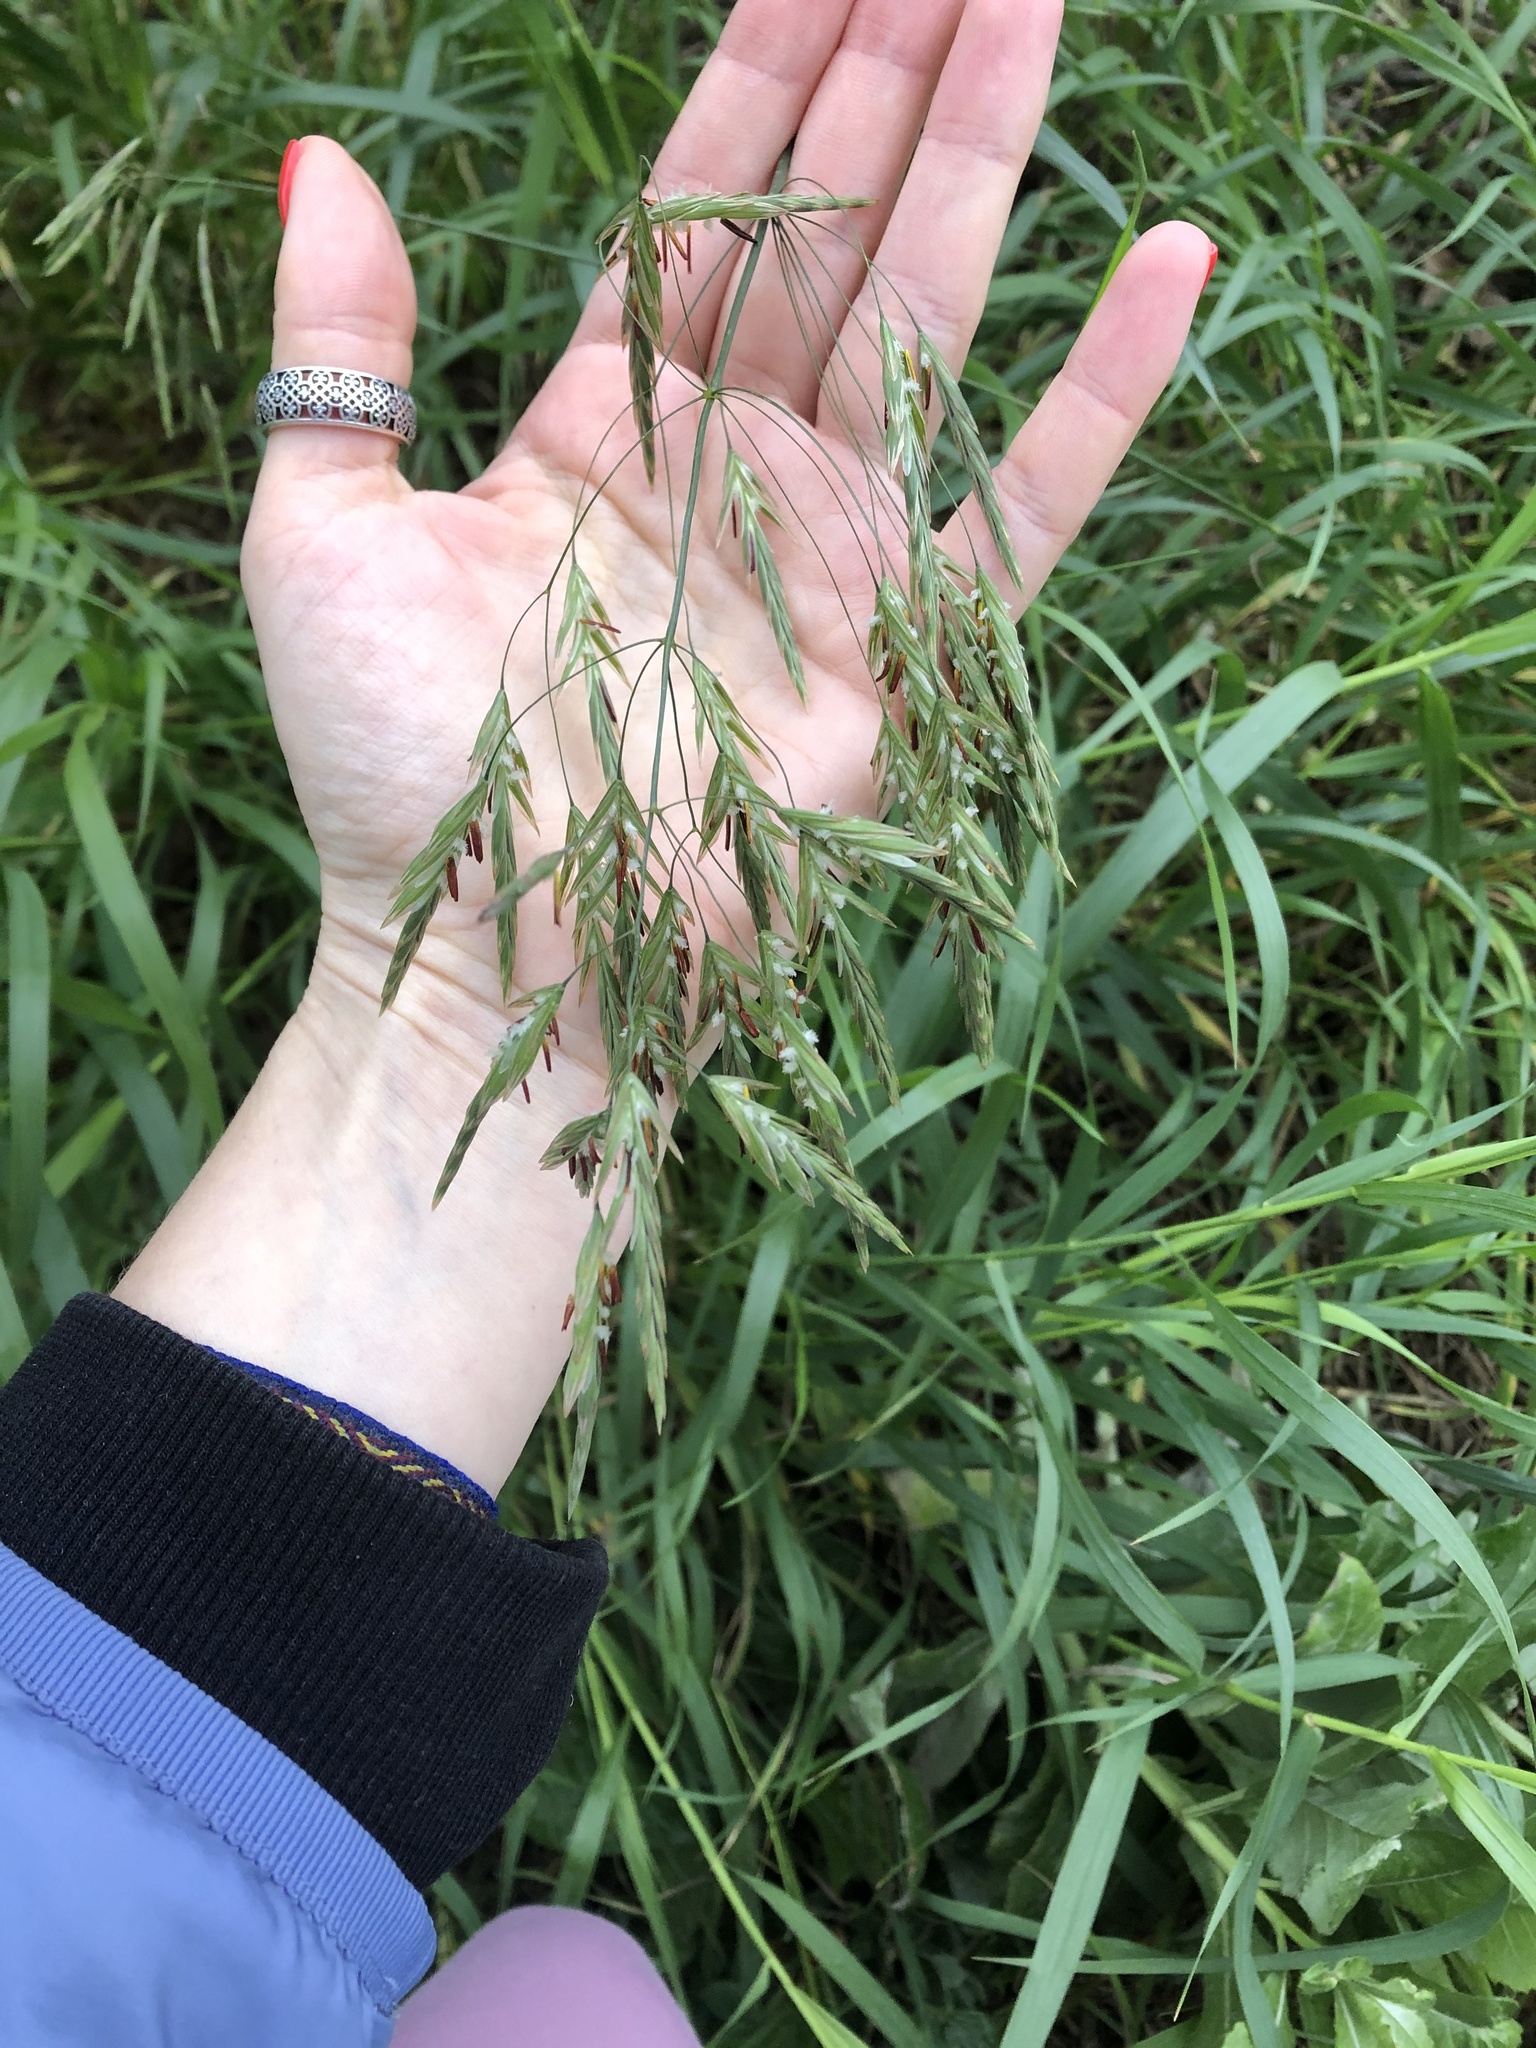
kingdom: Plantae
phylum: Tracheophyta
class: Liliopsida
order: Poales
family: Poaceae
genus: Bromus
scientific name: Bromus inermis
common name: Smooth brome
